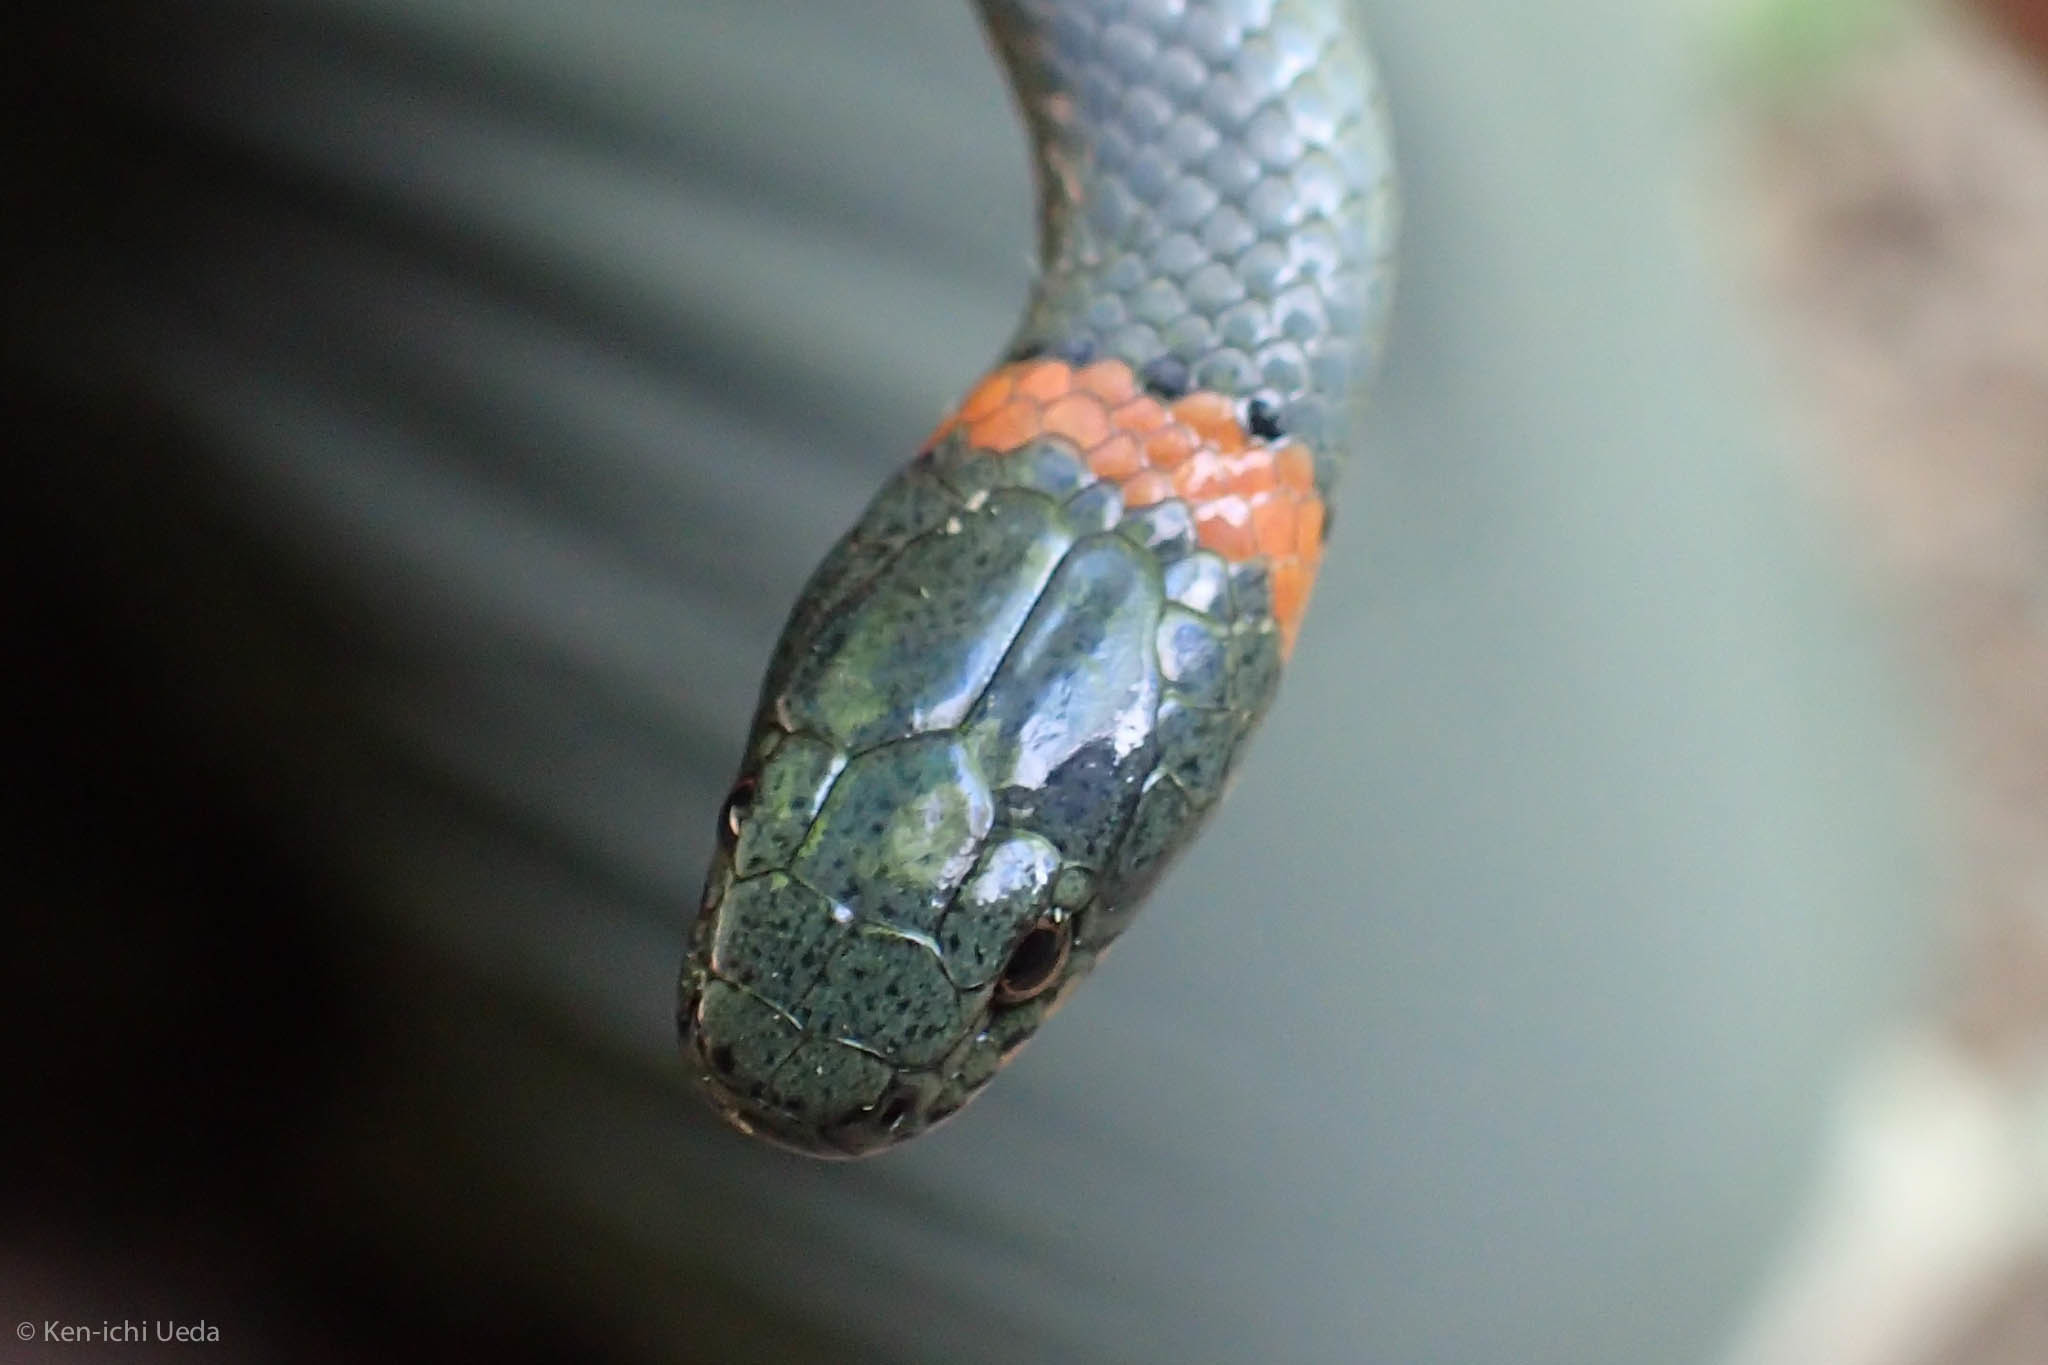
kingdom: Animalia
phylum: Chordata
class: Squamata
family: Colubridae
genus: Diadophis
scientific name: Diadophis punctatus
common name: Ringneck snake
